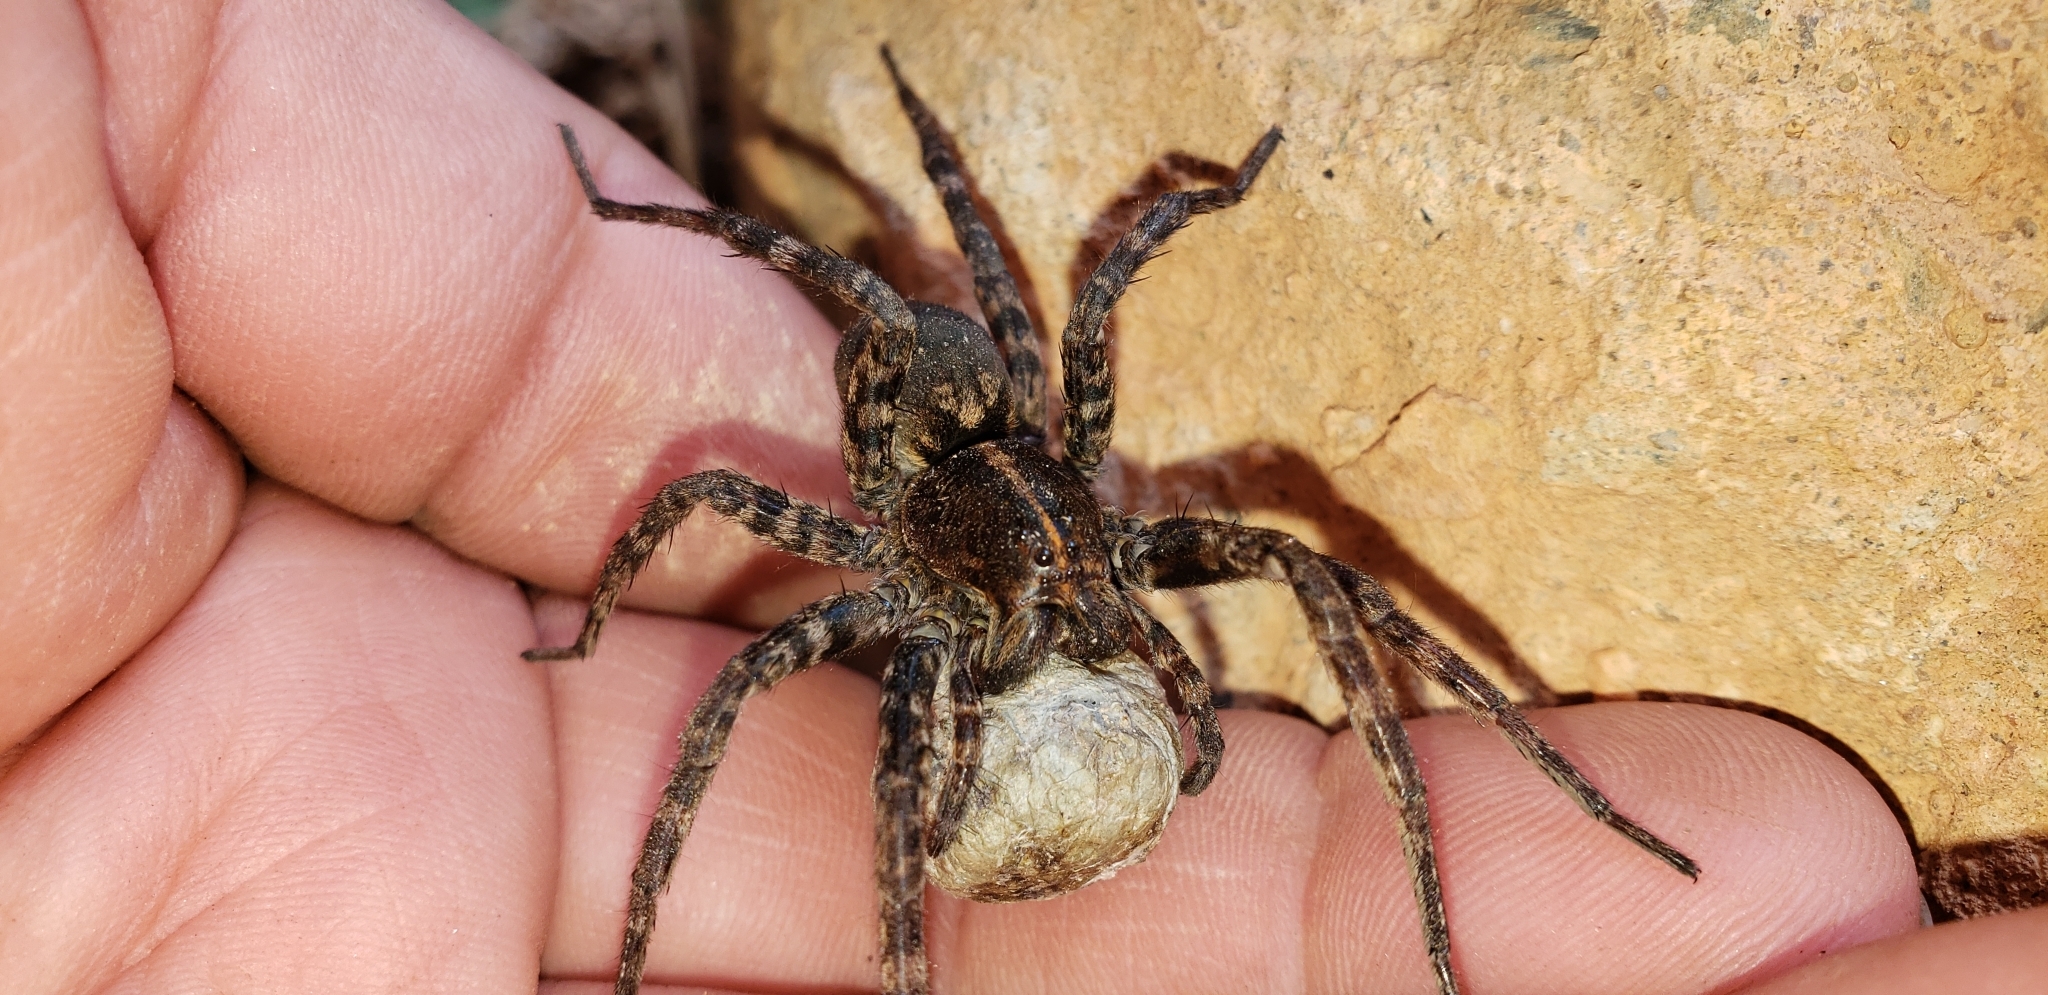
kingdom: Animalia
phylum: Arthropoda
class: Arachnida
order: Araneae
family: Lycosidae
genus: Tigrosa
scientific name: Tigrosa georgicola
